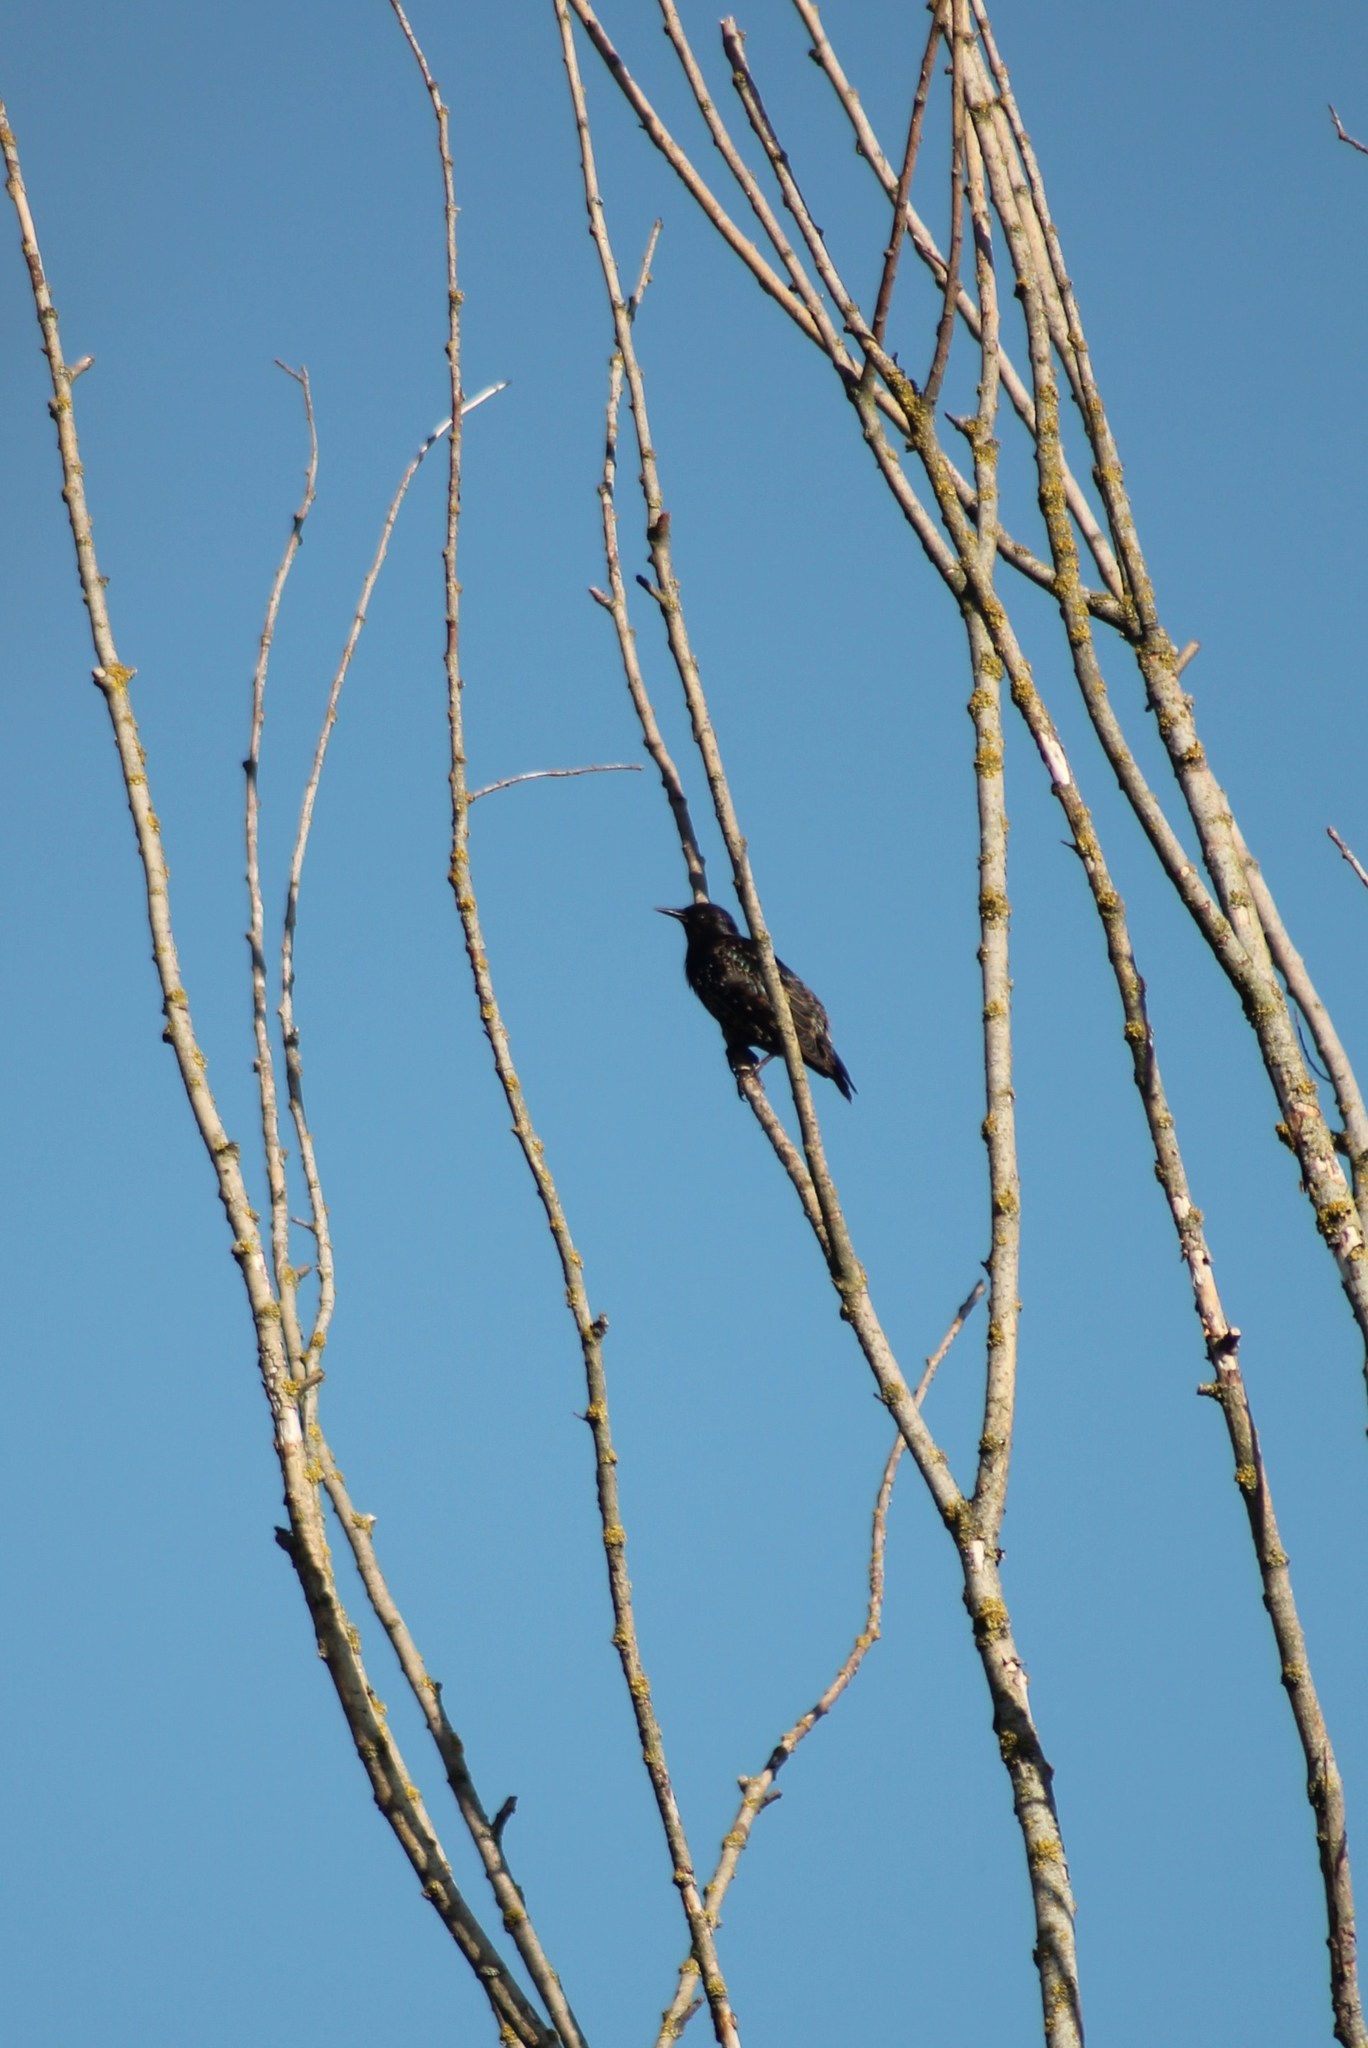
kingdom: Animalia
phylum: Chordata
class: Aves
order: Passeriformes
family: Sturnidae
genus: Sturnus
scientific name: Sturnus vulgaris
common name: Common starling
